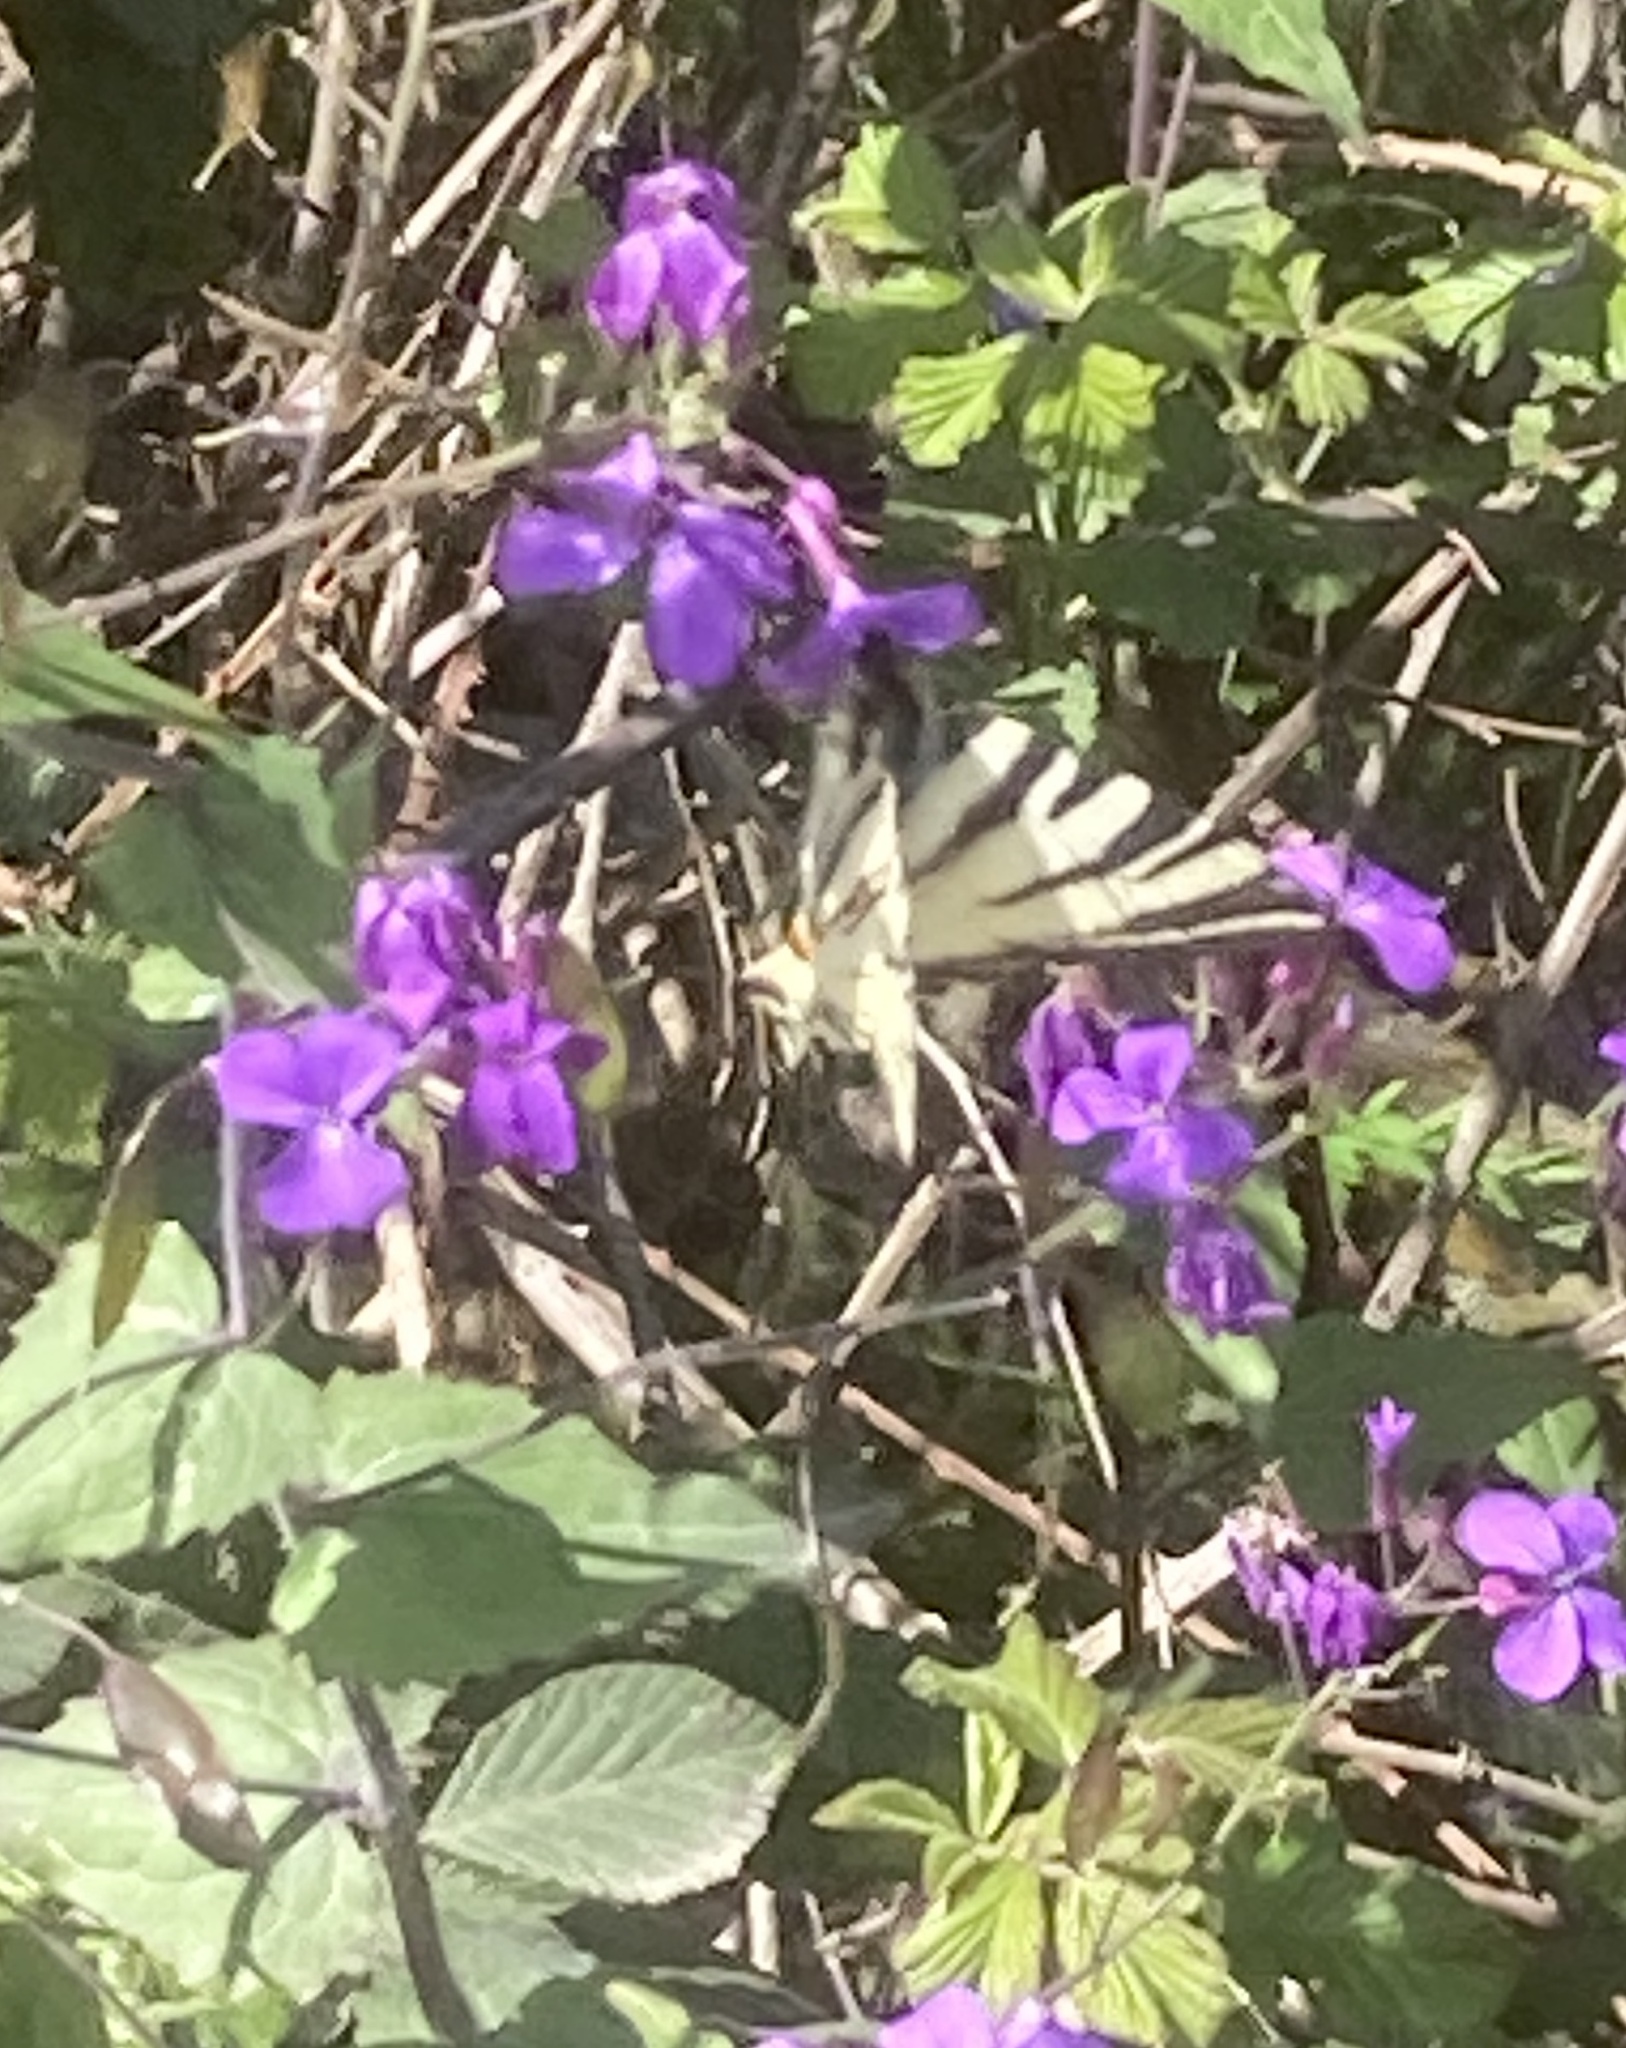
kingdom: Plantae
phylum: Tracheophyta
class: Magnoliopsida
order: Brassicales
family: Brassicaceae
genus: Lunaria
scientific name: Lunaria annua
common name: Honesty
